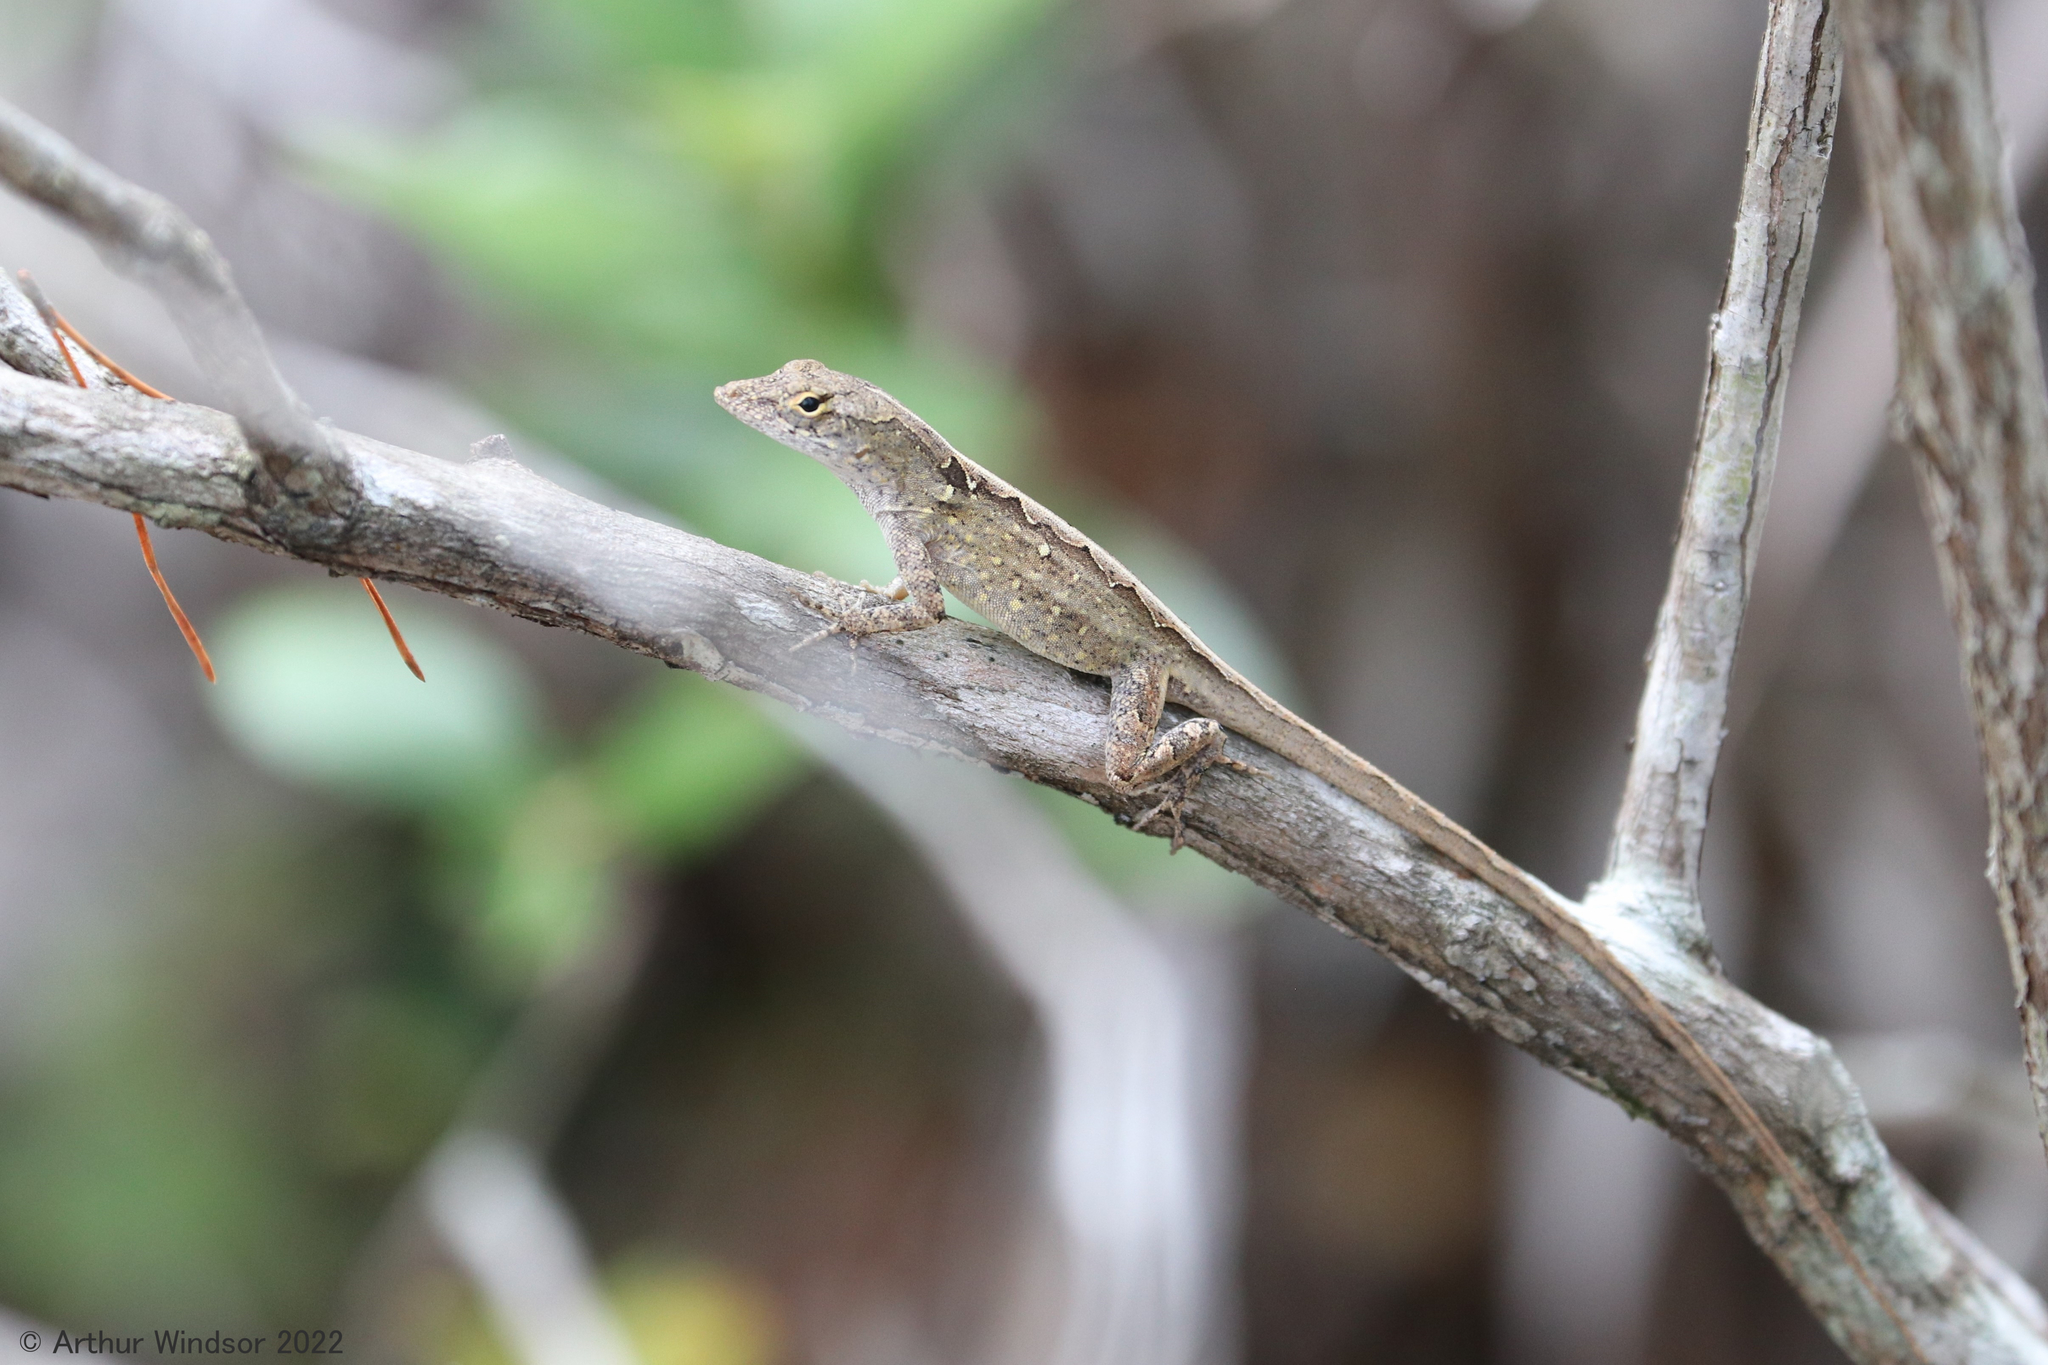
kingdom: Animalia
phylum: Chordata
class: Squamata
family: Dactyloidae
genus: Anolis
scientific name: Anolis sagrei
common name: Brown anole
